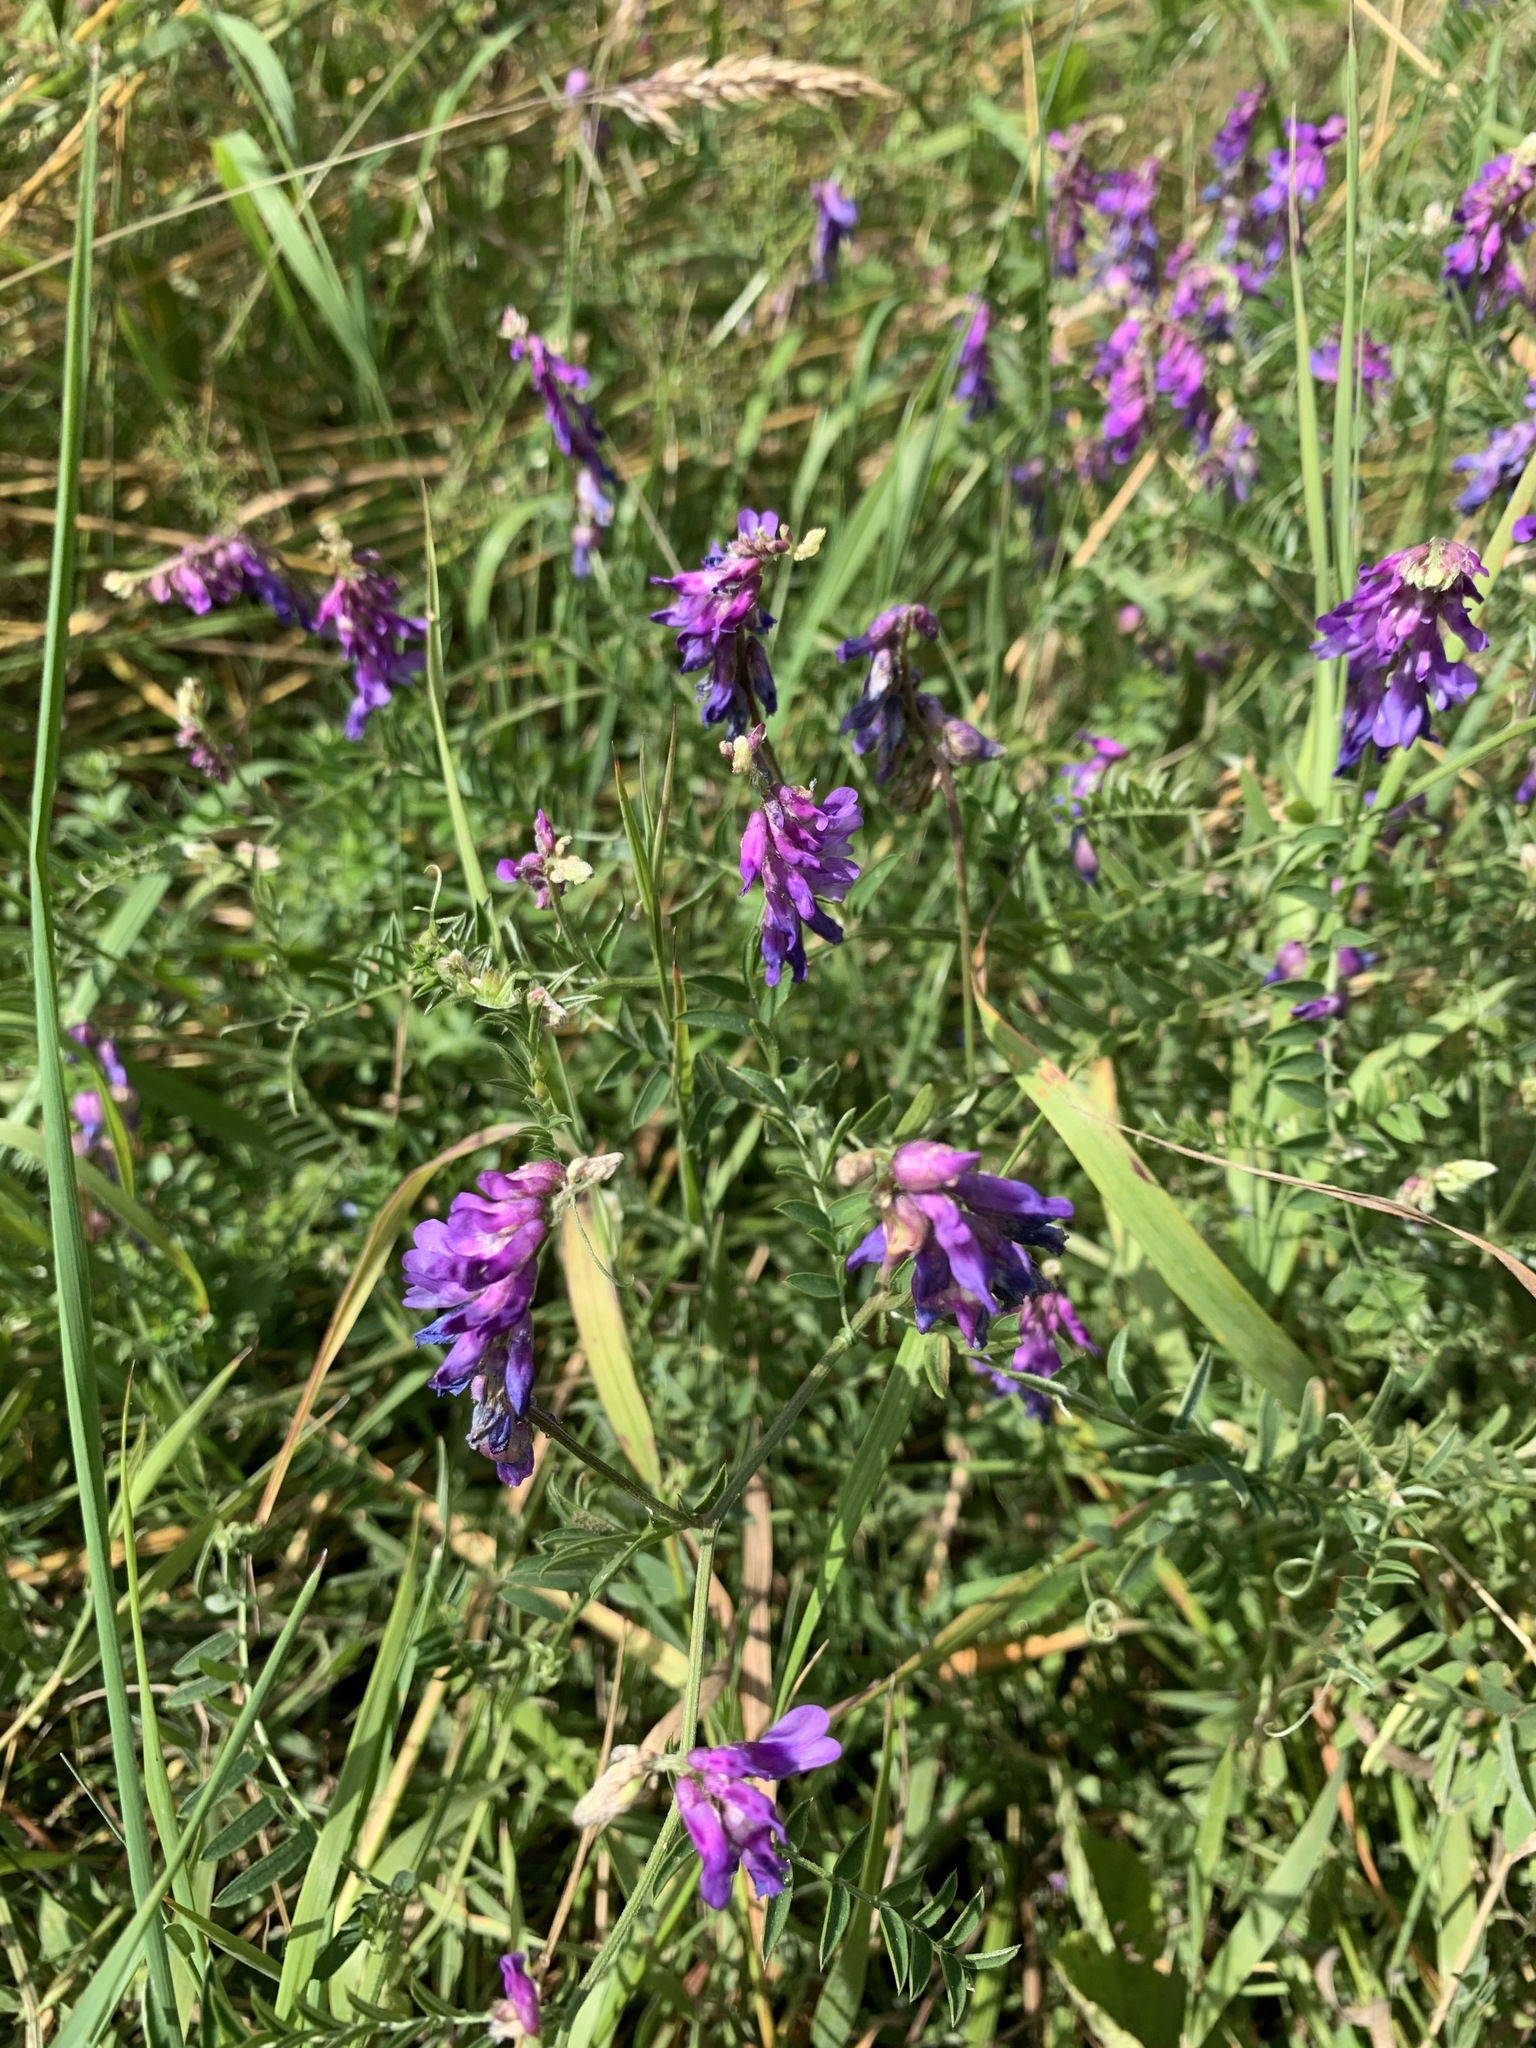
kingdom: Plantae
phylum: Tracheophyta
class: Magnoliopsida
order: Fabales
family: Fabaceae
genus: Vicia
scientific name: Vicia cracca
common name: Bird vetch
